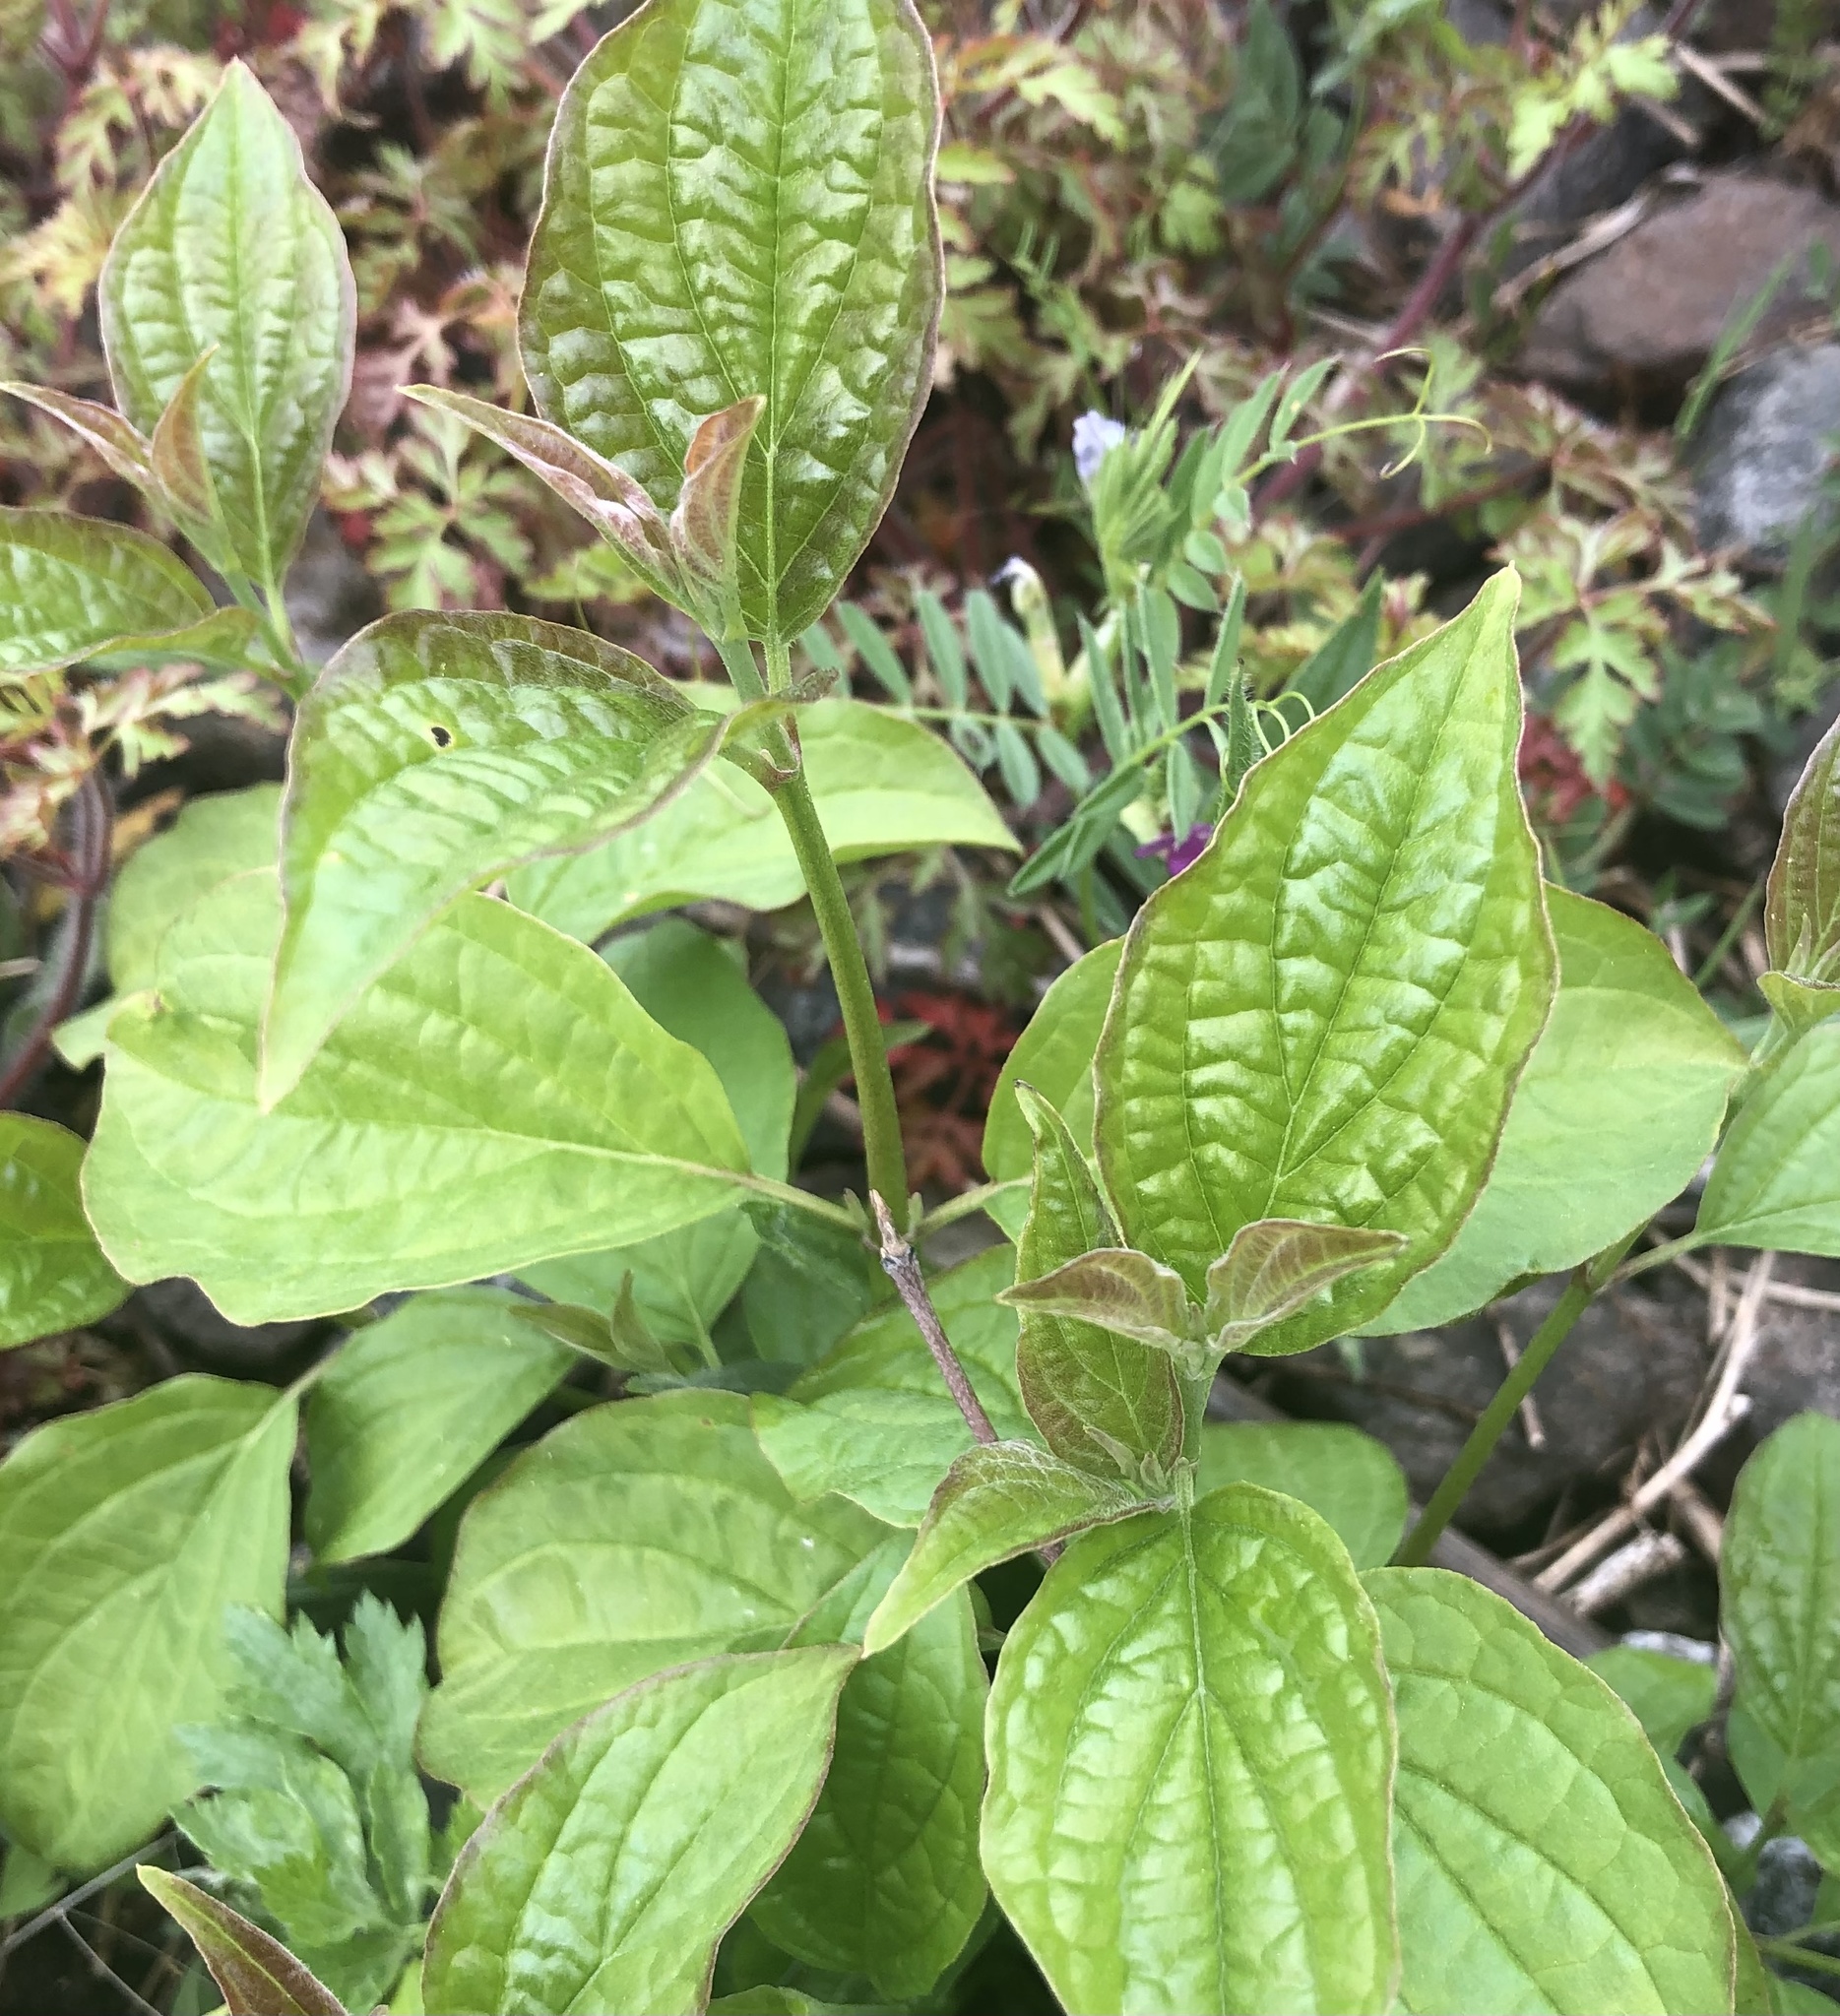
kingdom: Plantae
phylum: Tracheophyta
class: Magnoliopsida
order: Cornales
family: Cornaceae
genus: Cornus
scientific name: Cornus sanguinea
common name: Dogwood
